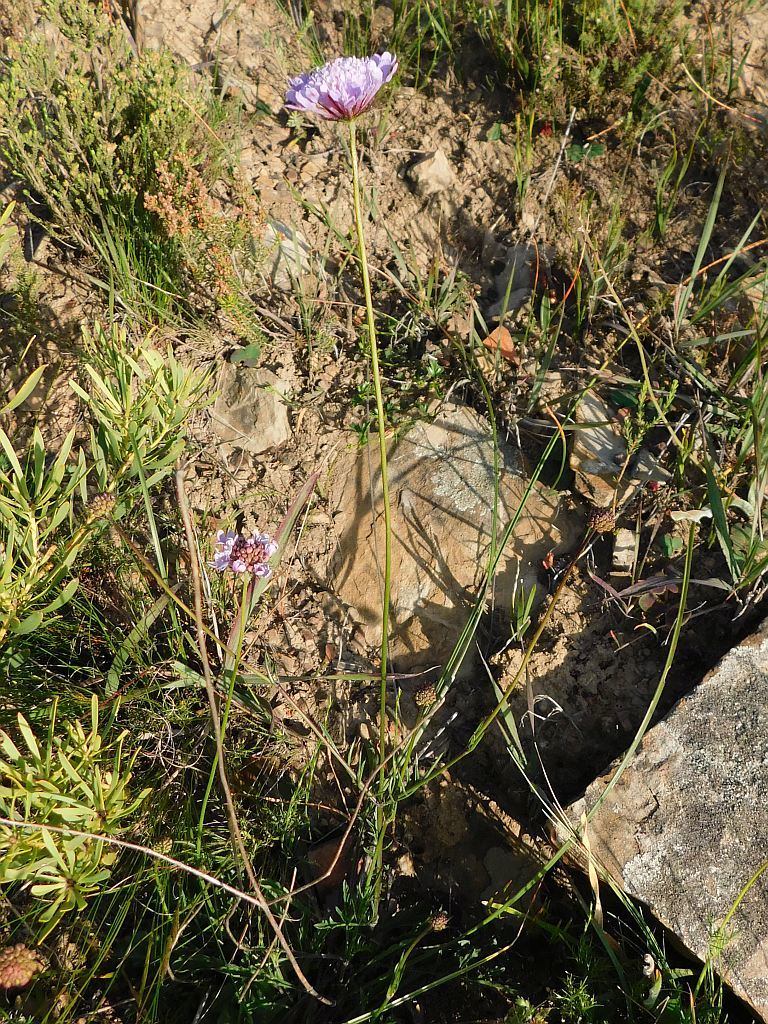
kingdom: Plantae
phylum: Tracheophyta
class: Magnoliopsida
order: Dipsacales
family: Caprifoliaceae
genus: Scabiosa
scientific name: Scabiosa columbaria
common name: Small scabious
